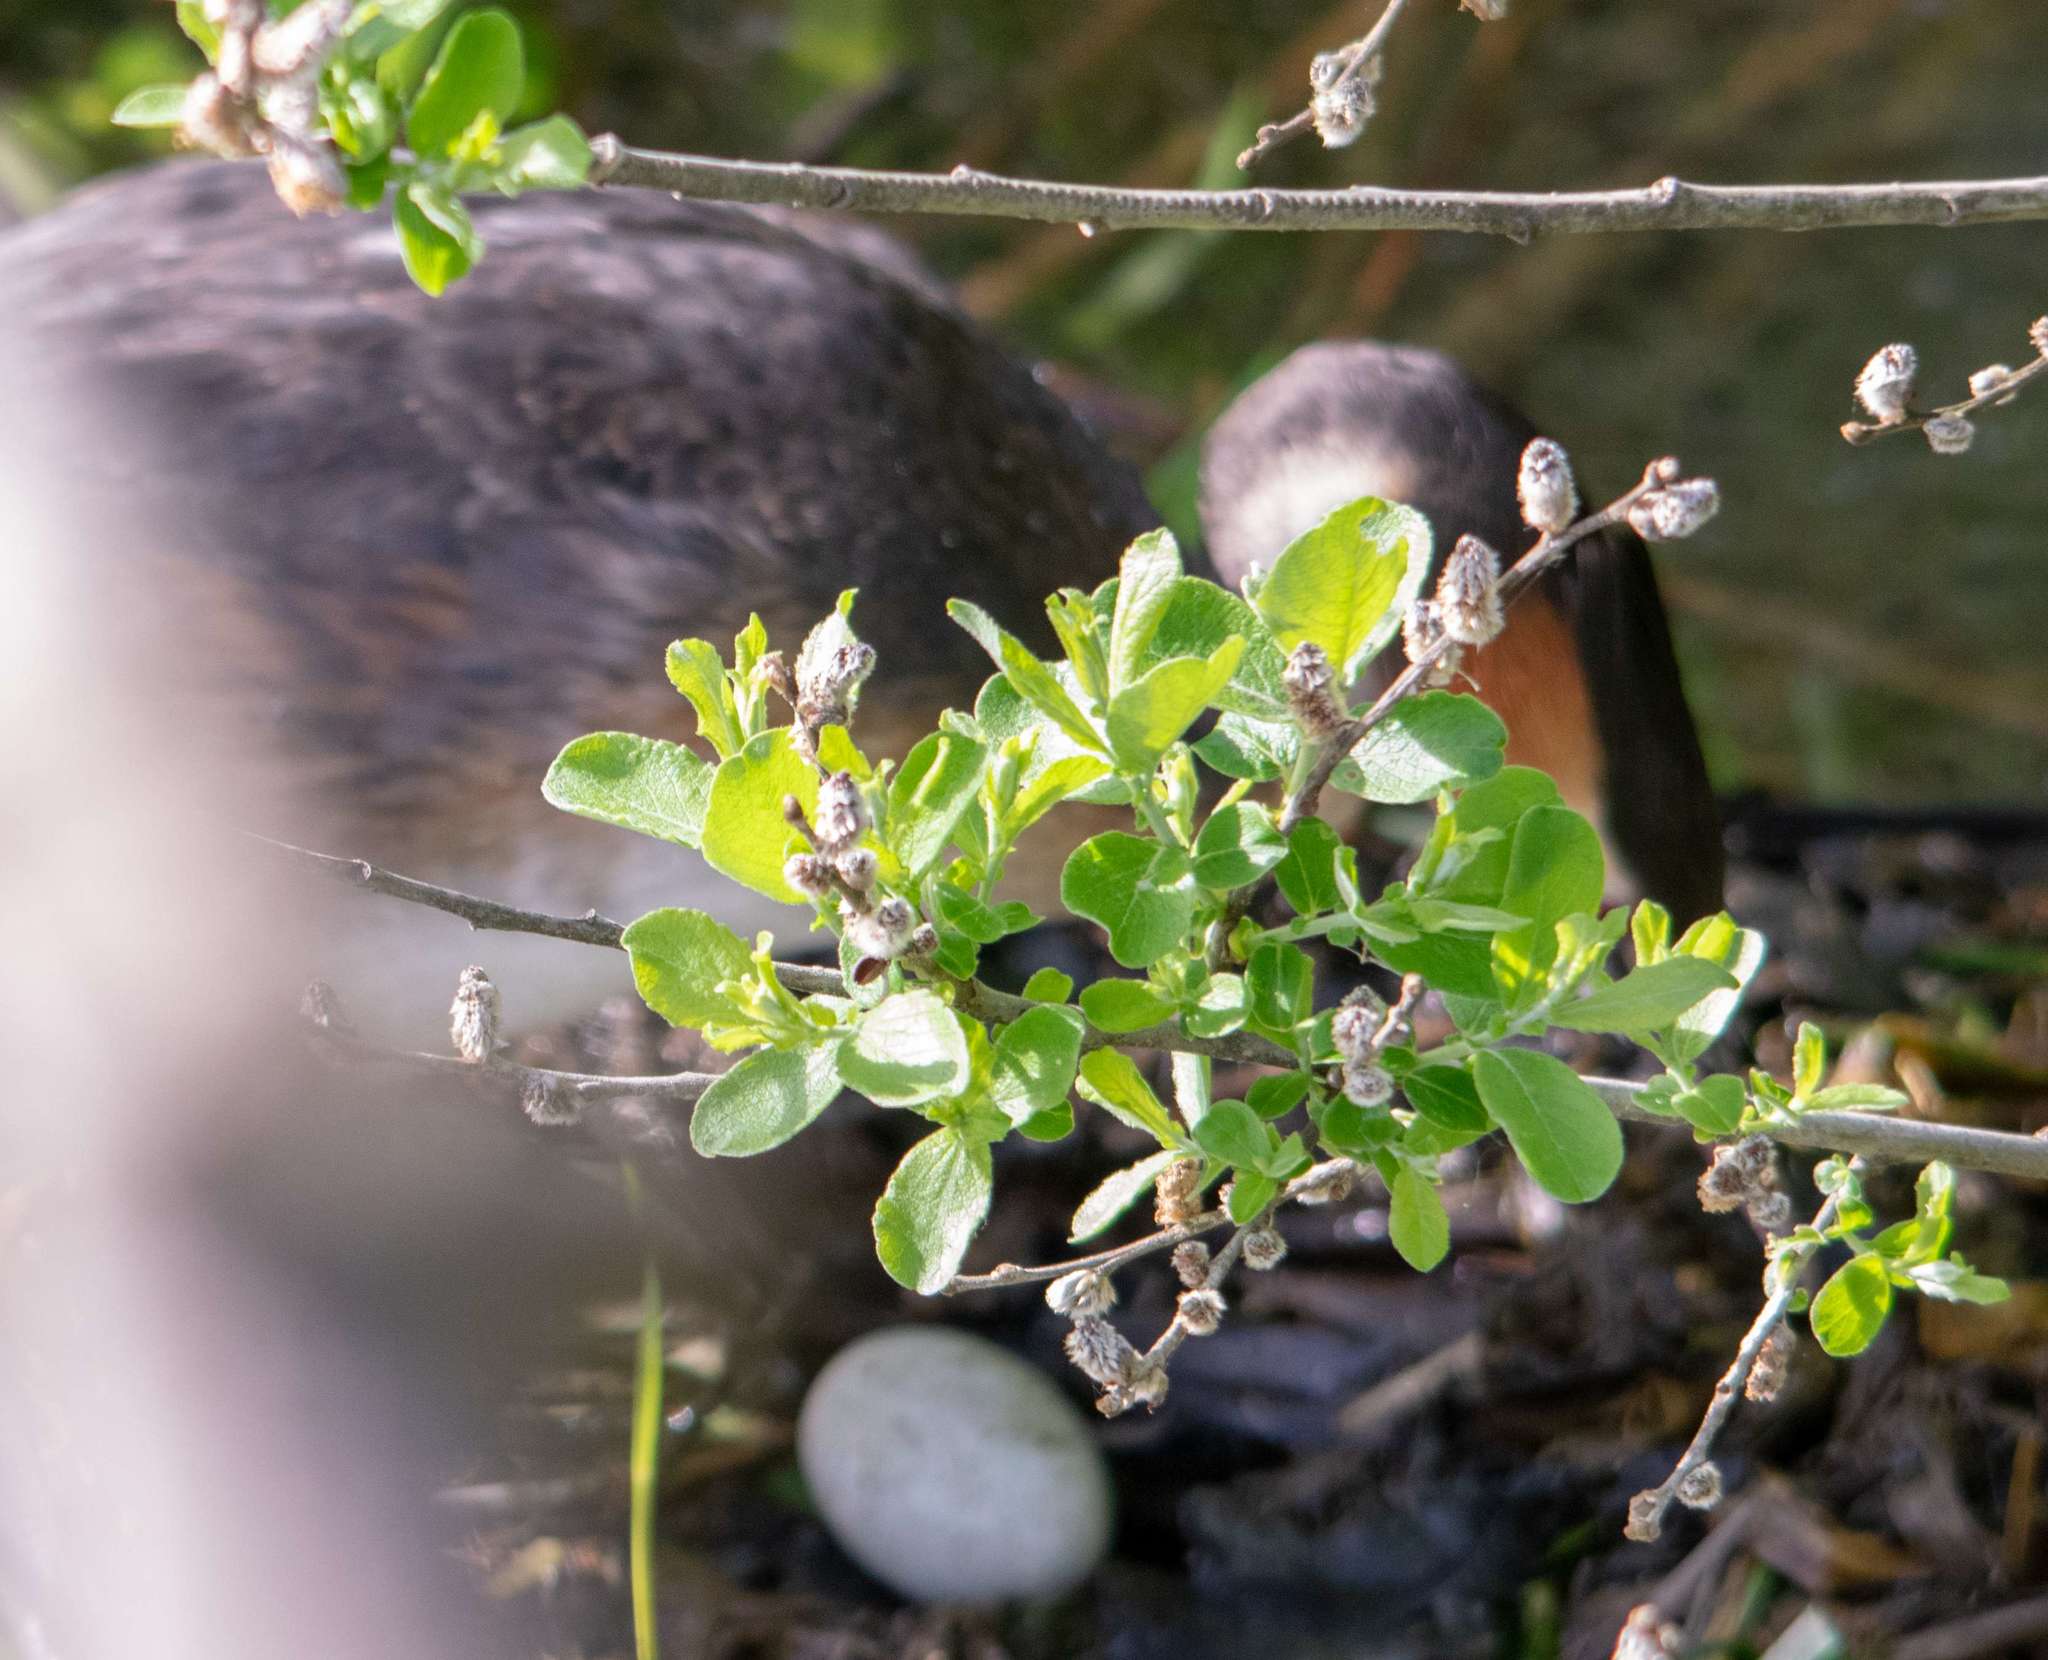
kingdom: Animalia
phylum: Chordata
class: Aves
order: Podicipediformes
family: Podicipedidae
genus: Podiceps
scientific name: Podiceps cristatus
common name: Great crested grebe
